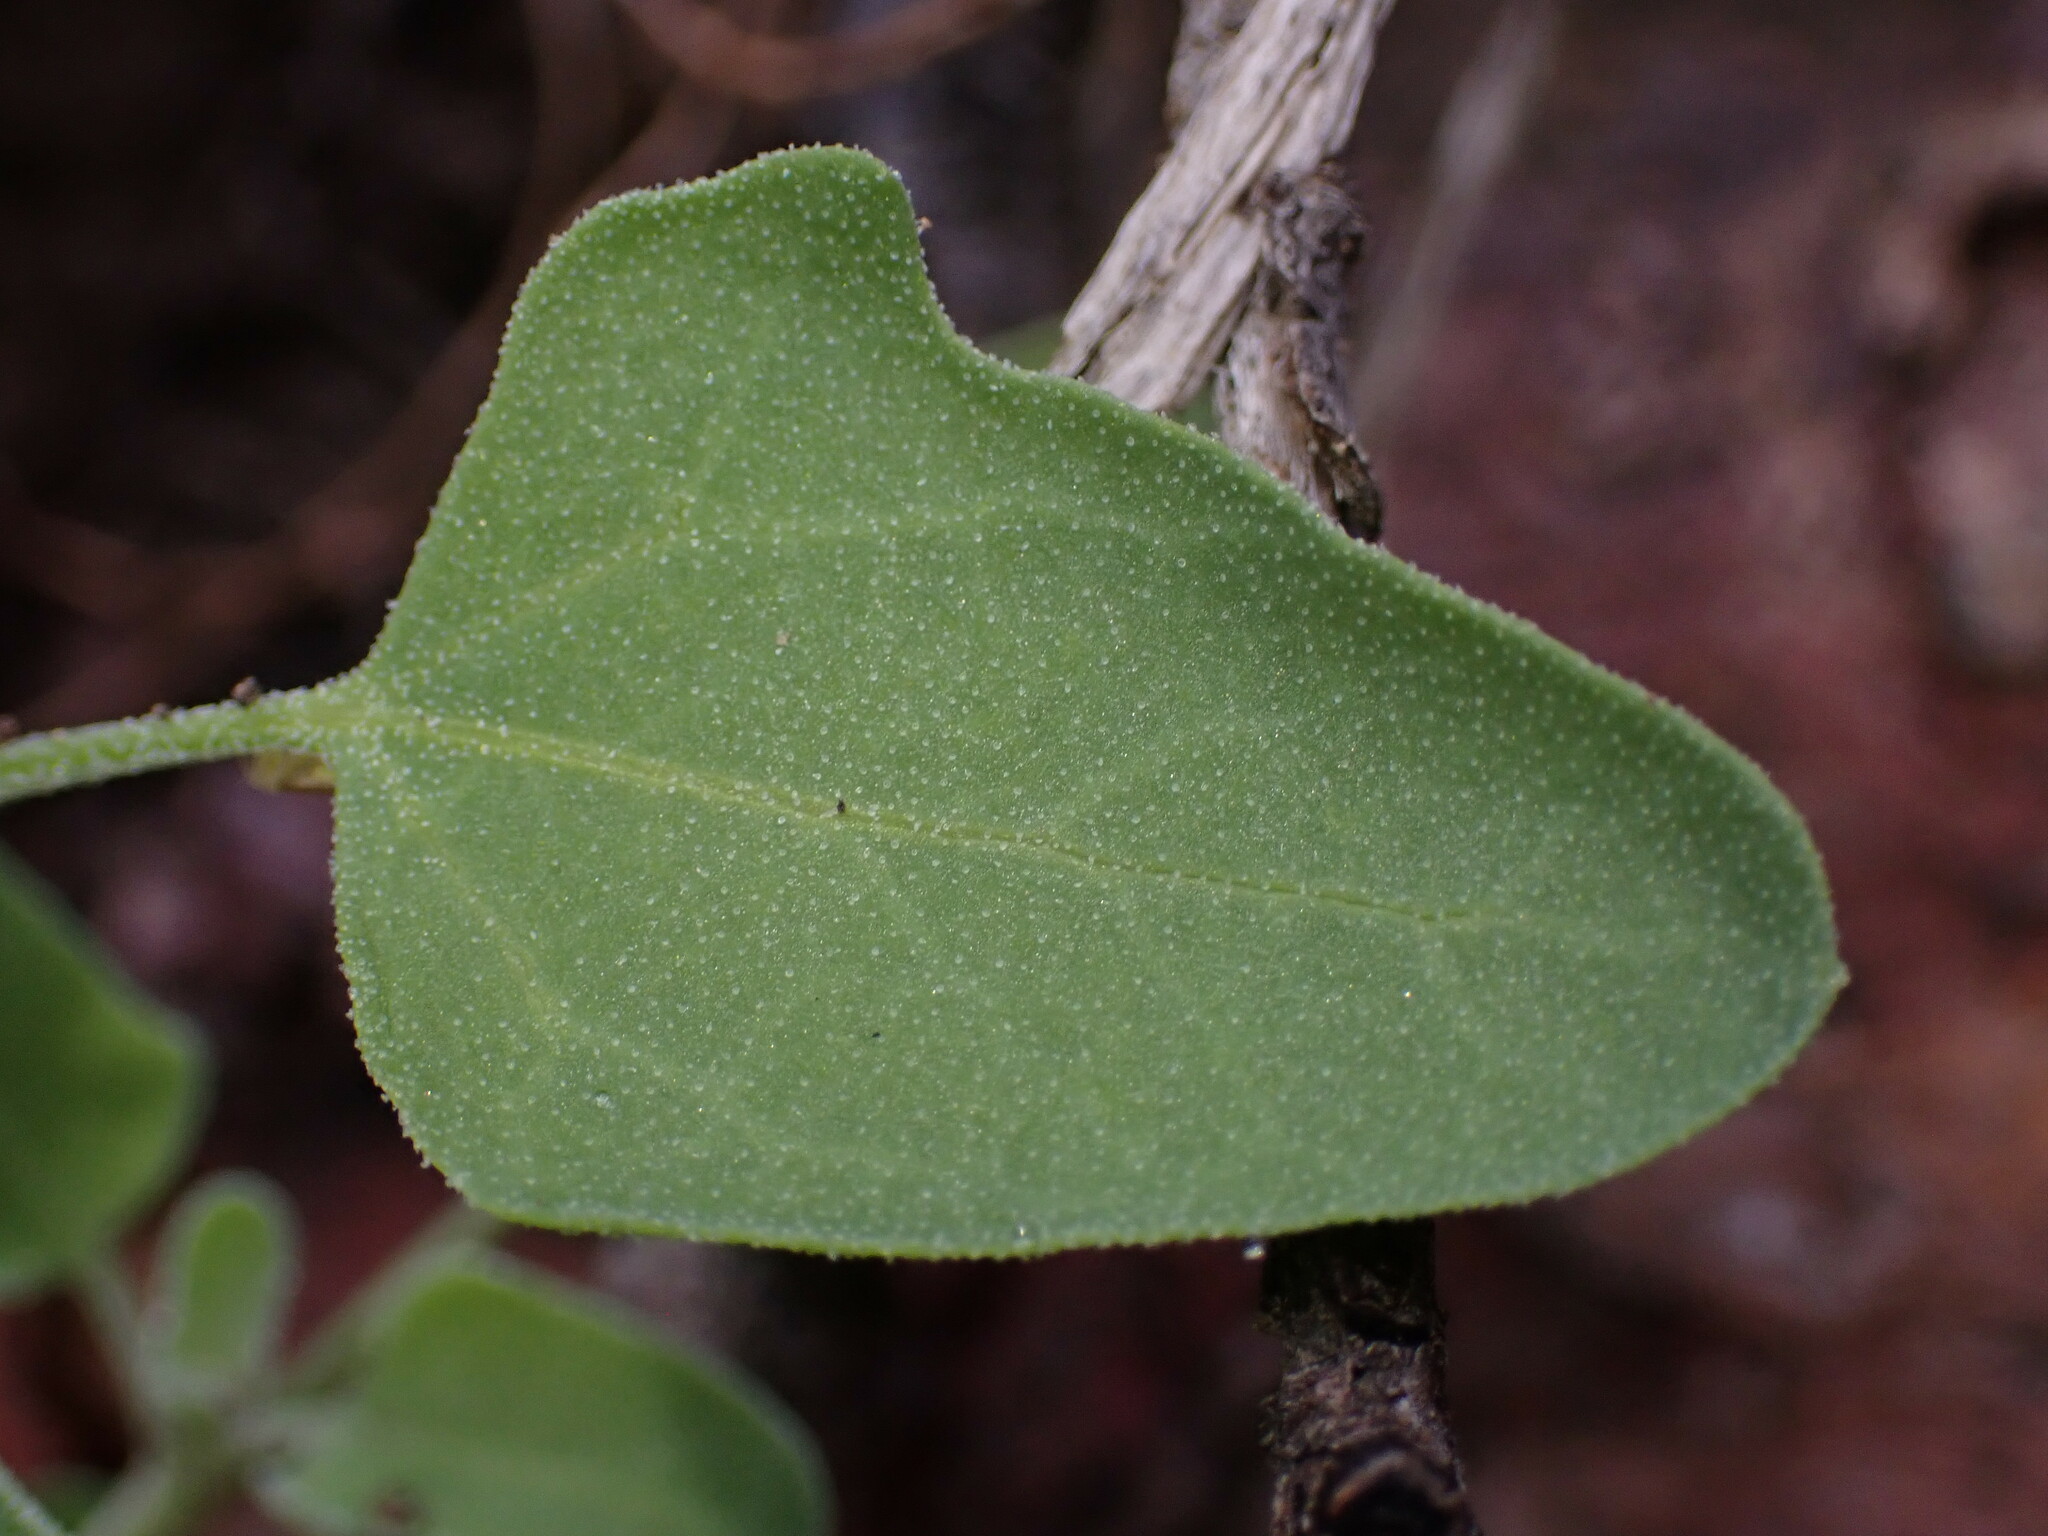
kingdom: Plantae
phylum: Tracheophyta
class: Magnoliopsida
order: Caryophyllales
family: Amaranthaceae
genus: Chenopodium
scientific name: Chenopodium album
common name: Fat-hen
